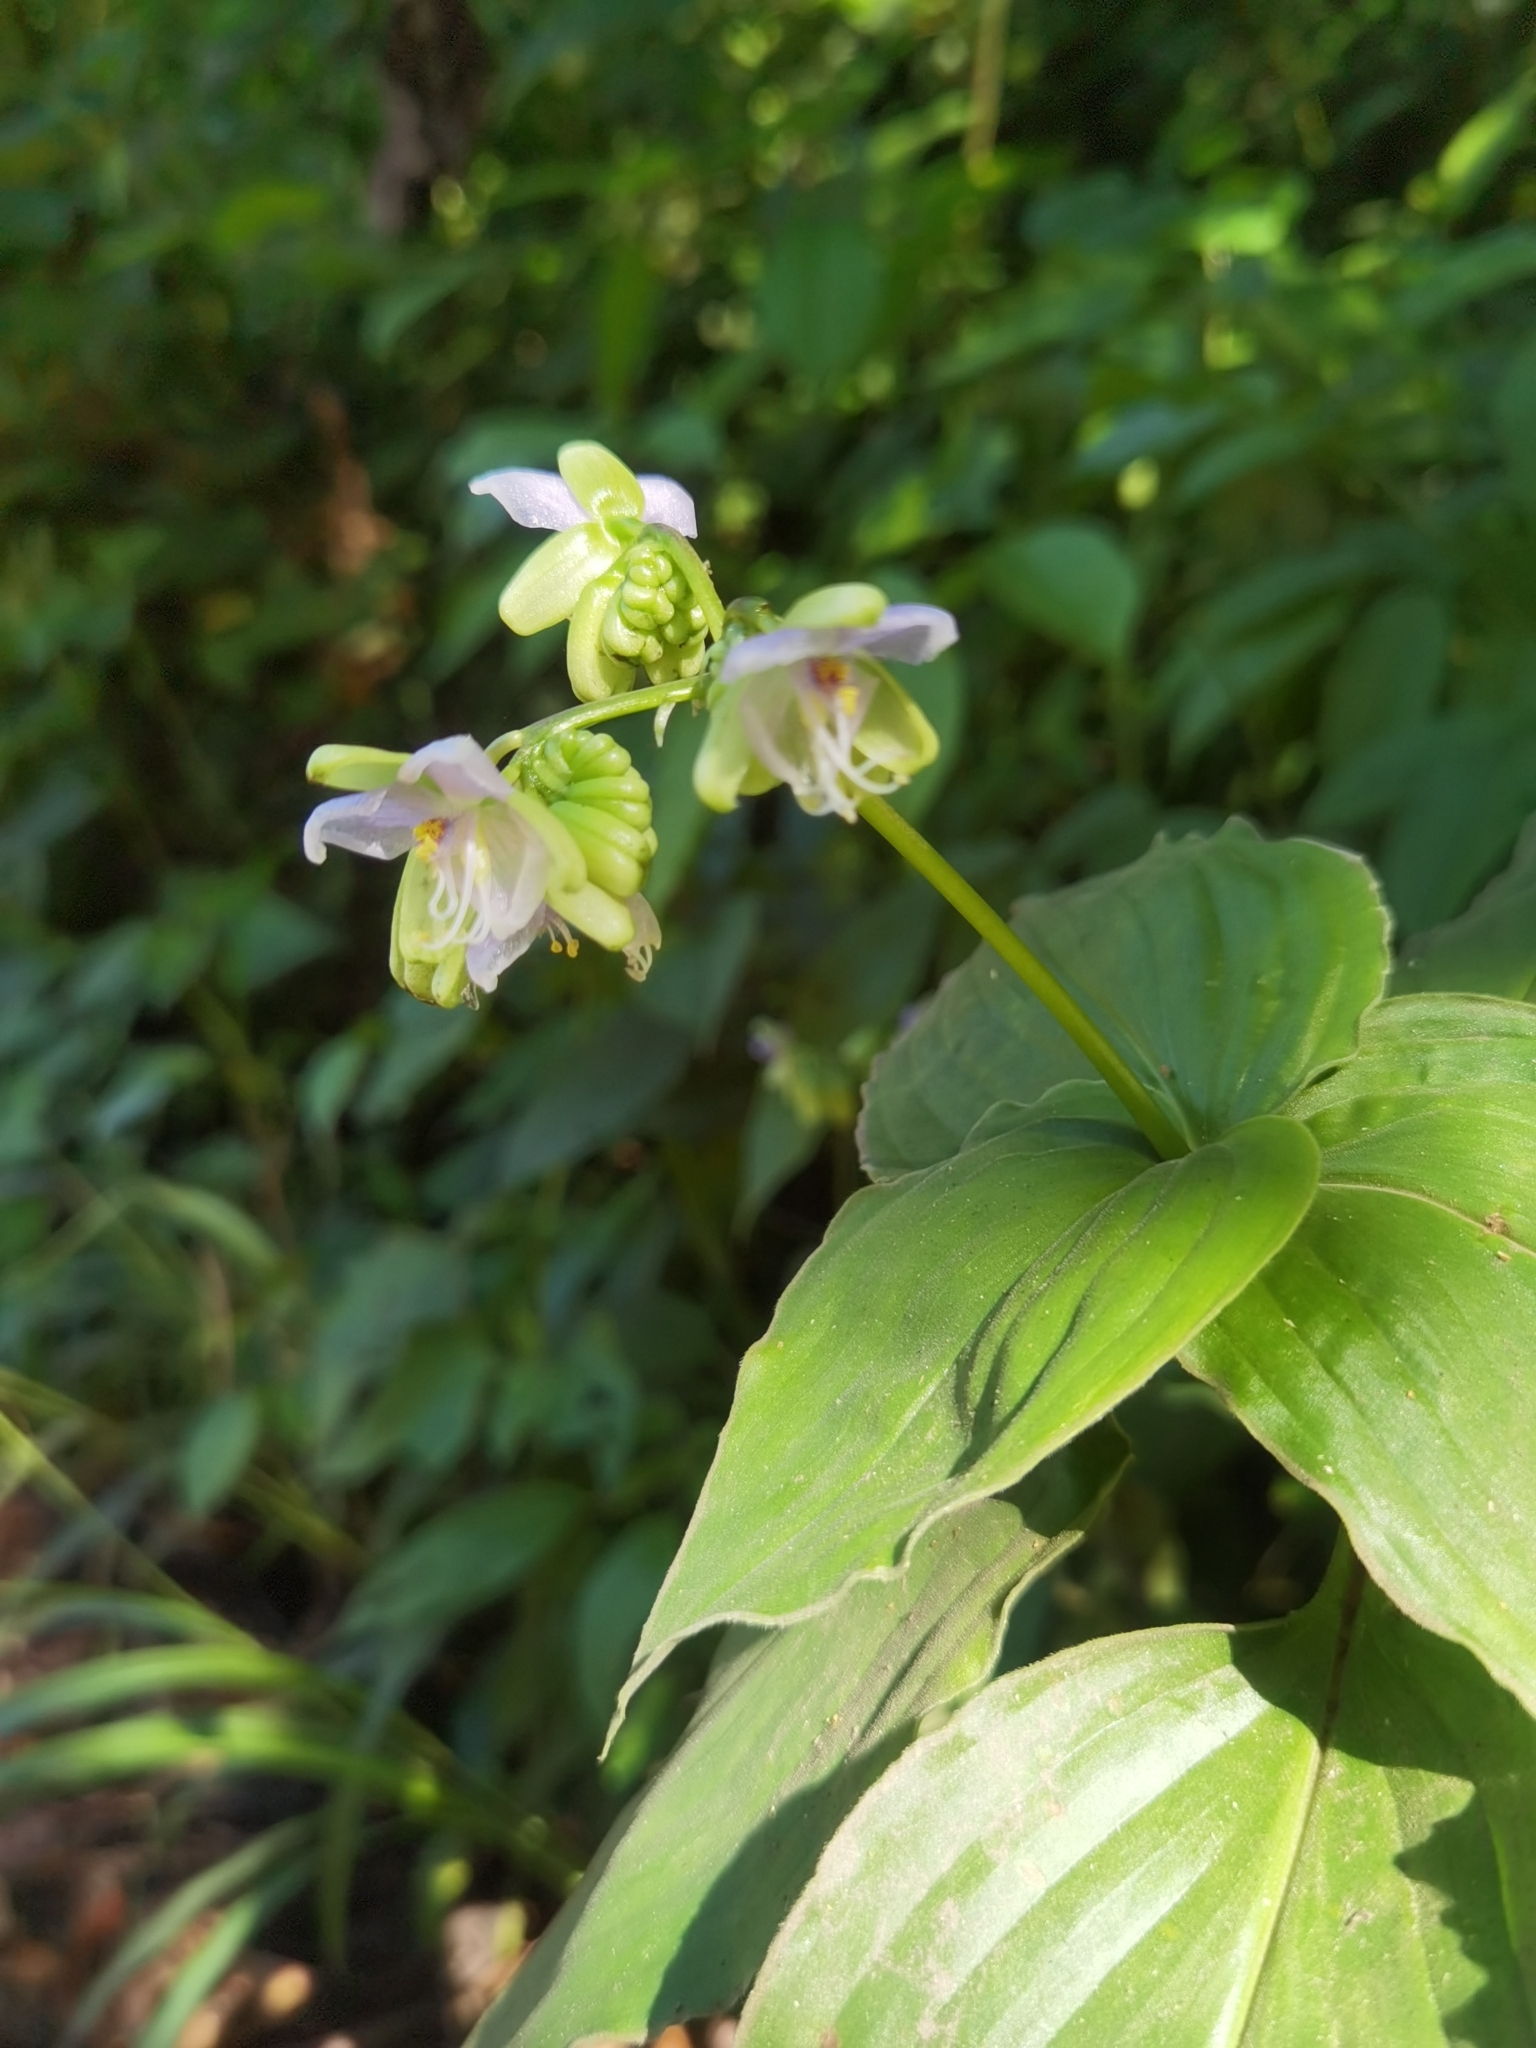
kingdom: Plantae
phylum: Tracheophyta
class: Liliopsida
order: Commelinales
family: Commelinaceae
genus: Tinantia
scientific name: Tinantia leiocalyx
